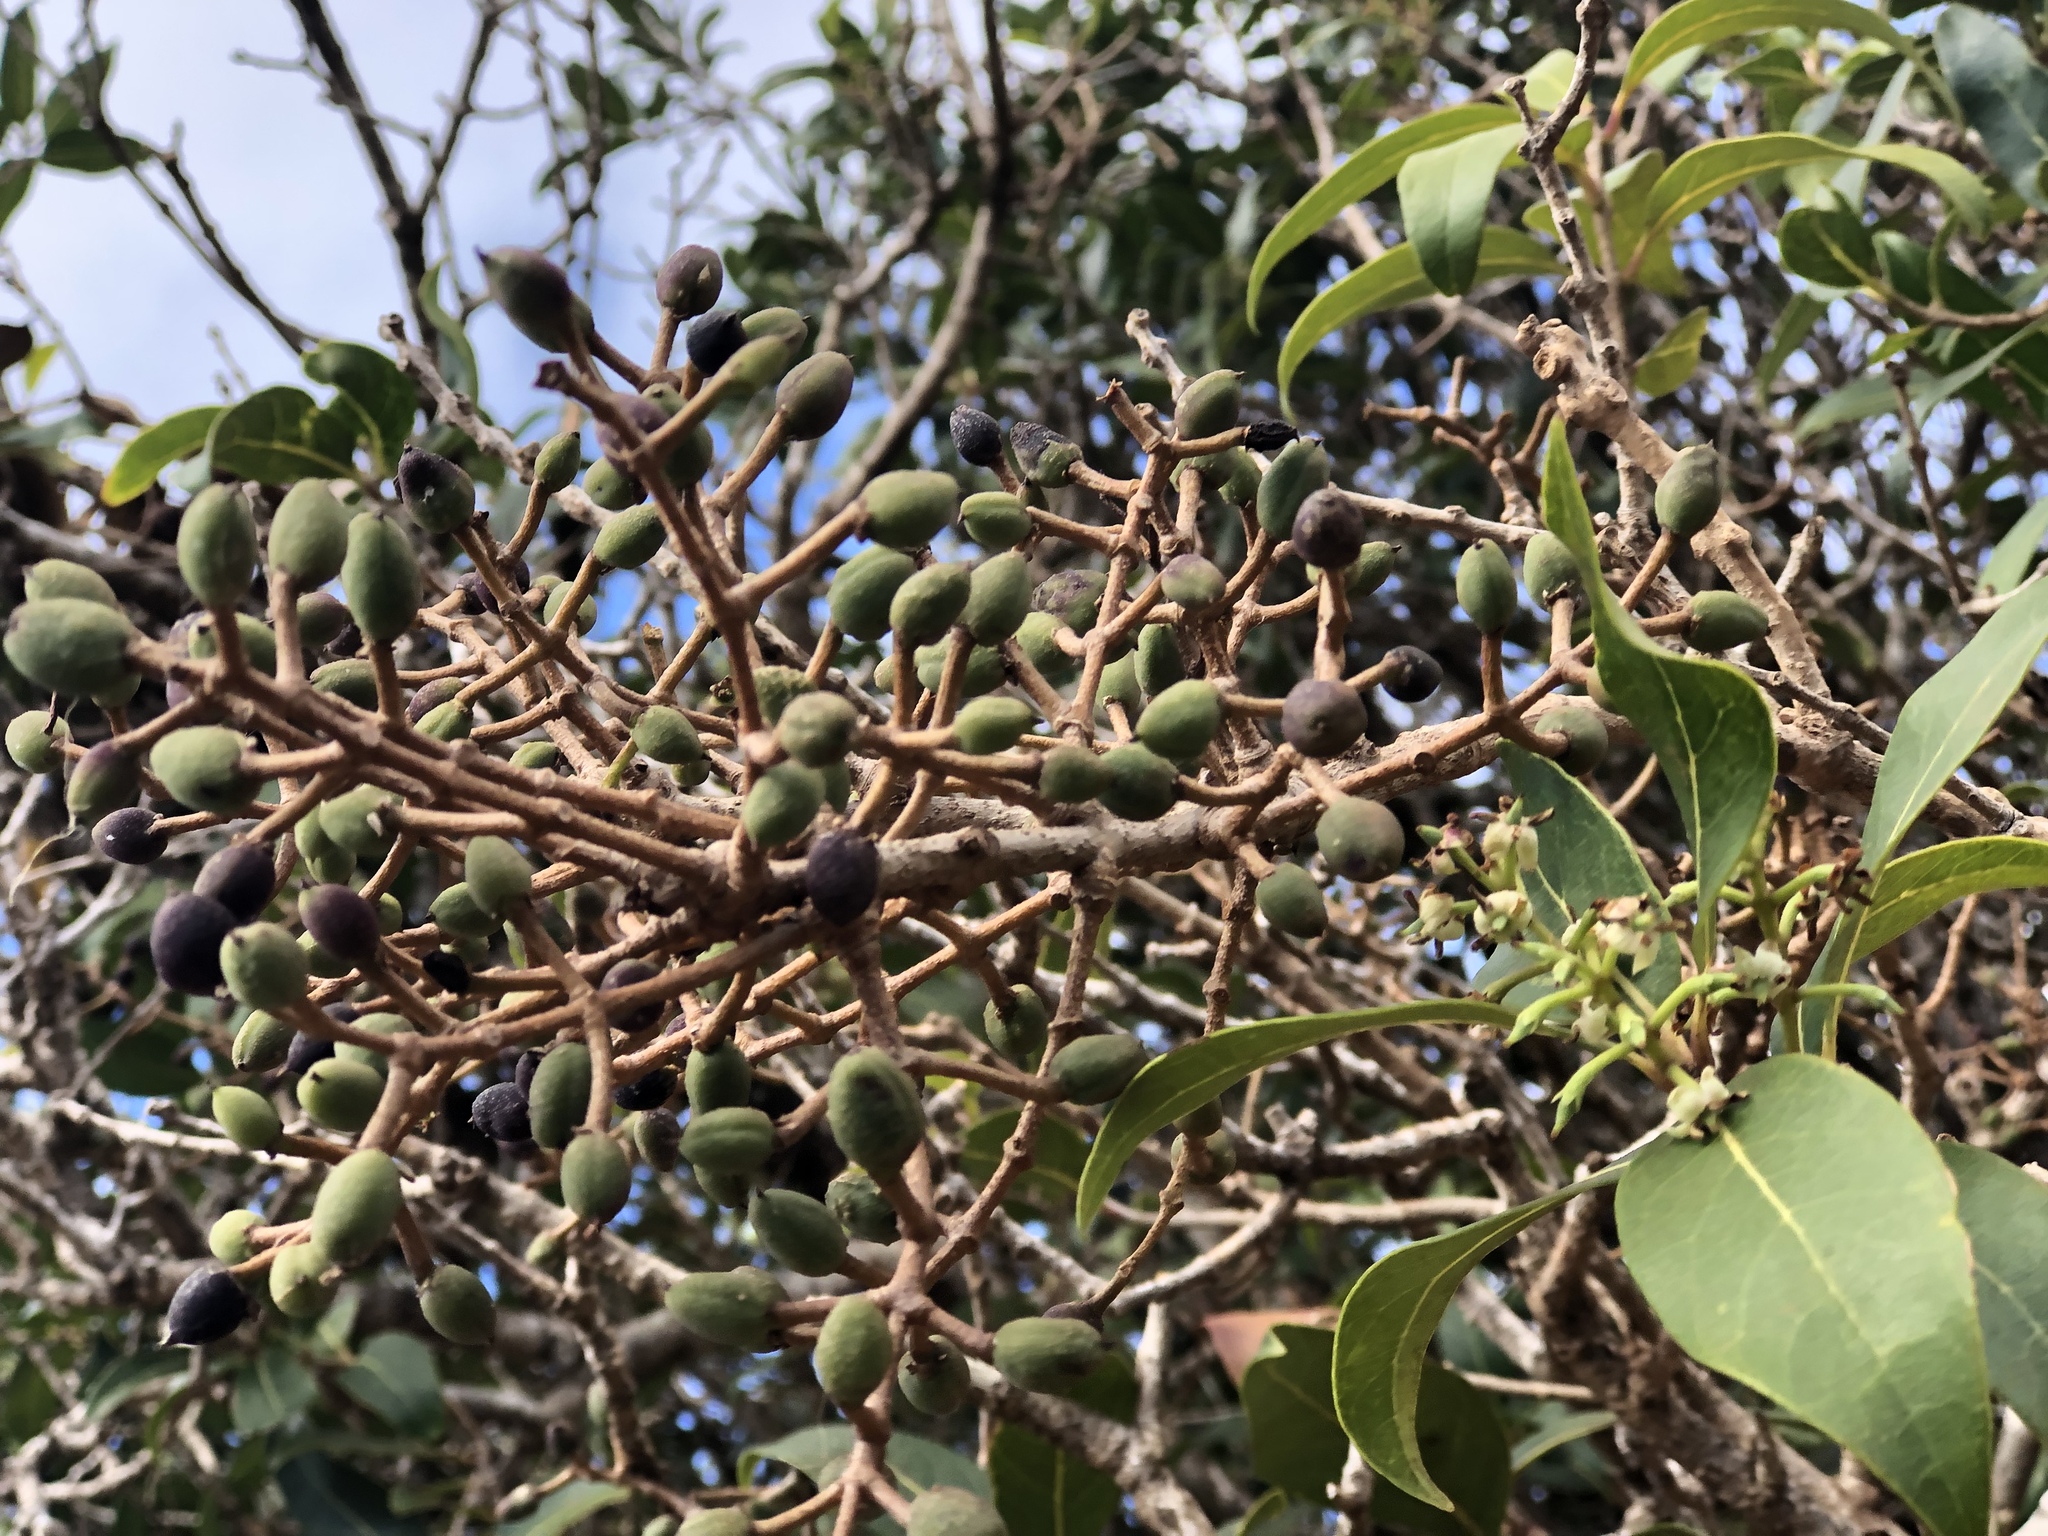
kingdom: Plantae
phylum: Tracheophyta
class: Magnoliopsida
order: Lamiales
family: Oleaceae
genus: Nestegis
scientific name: Nestegis sandwicensis
